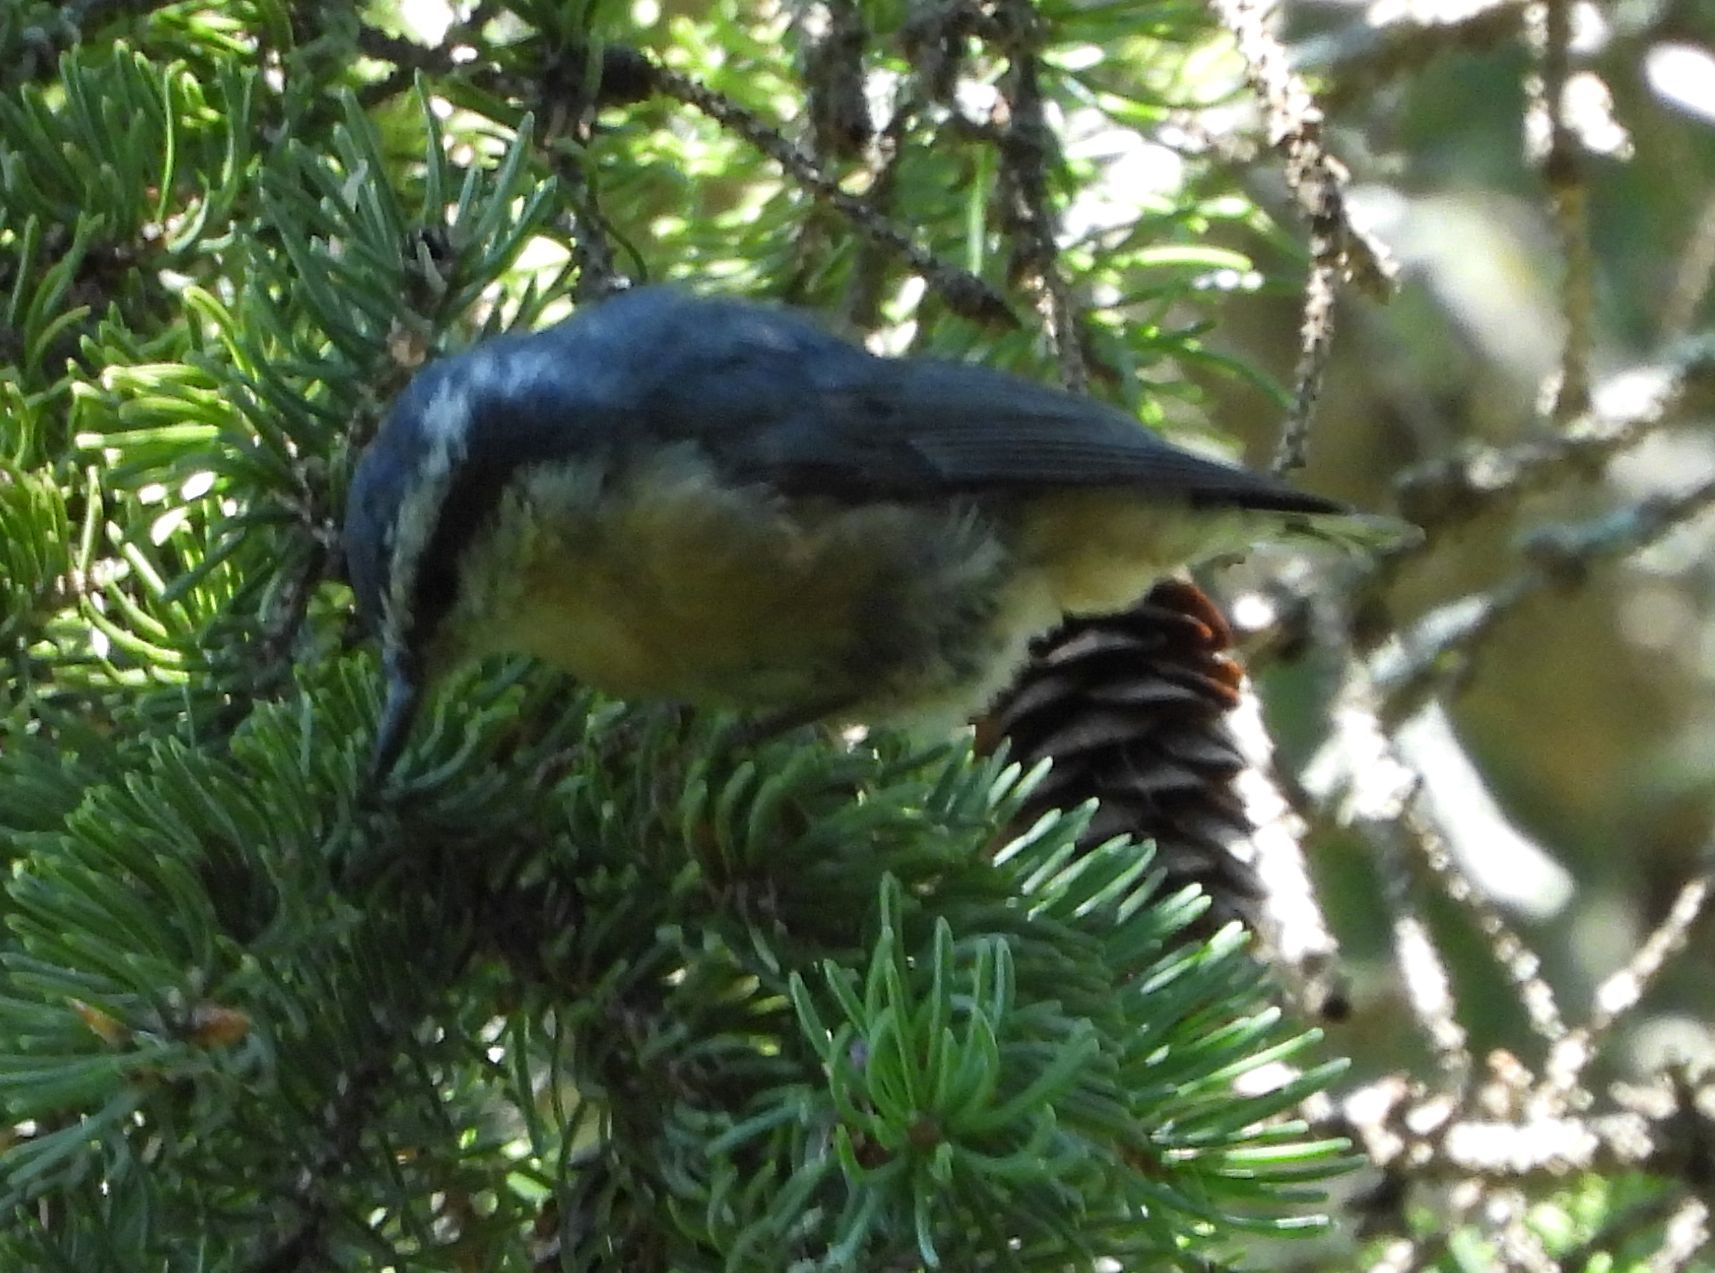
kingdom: Animalia
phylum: Chordata
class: Aves
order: Passeriformes
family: Sittidae
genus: Sitta
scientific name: Sitta canadensis
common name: Red-breasted nuthatch
